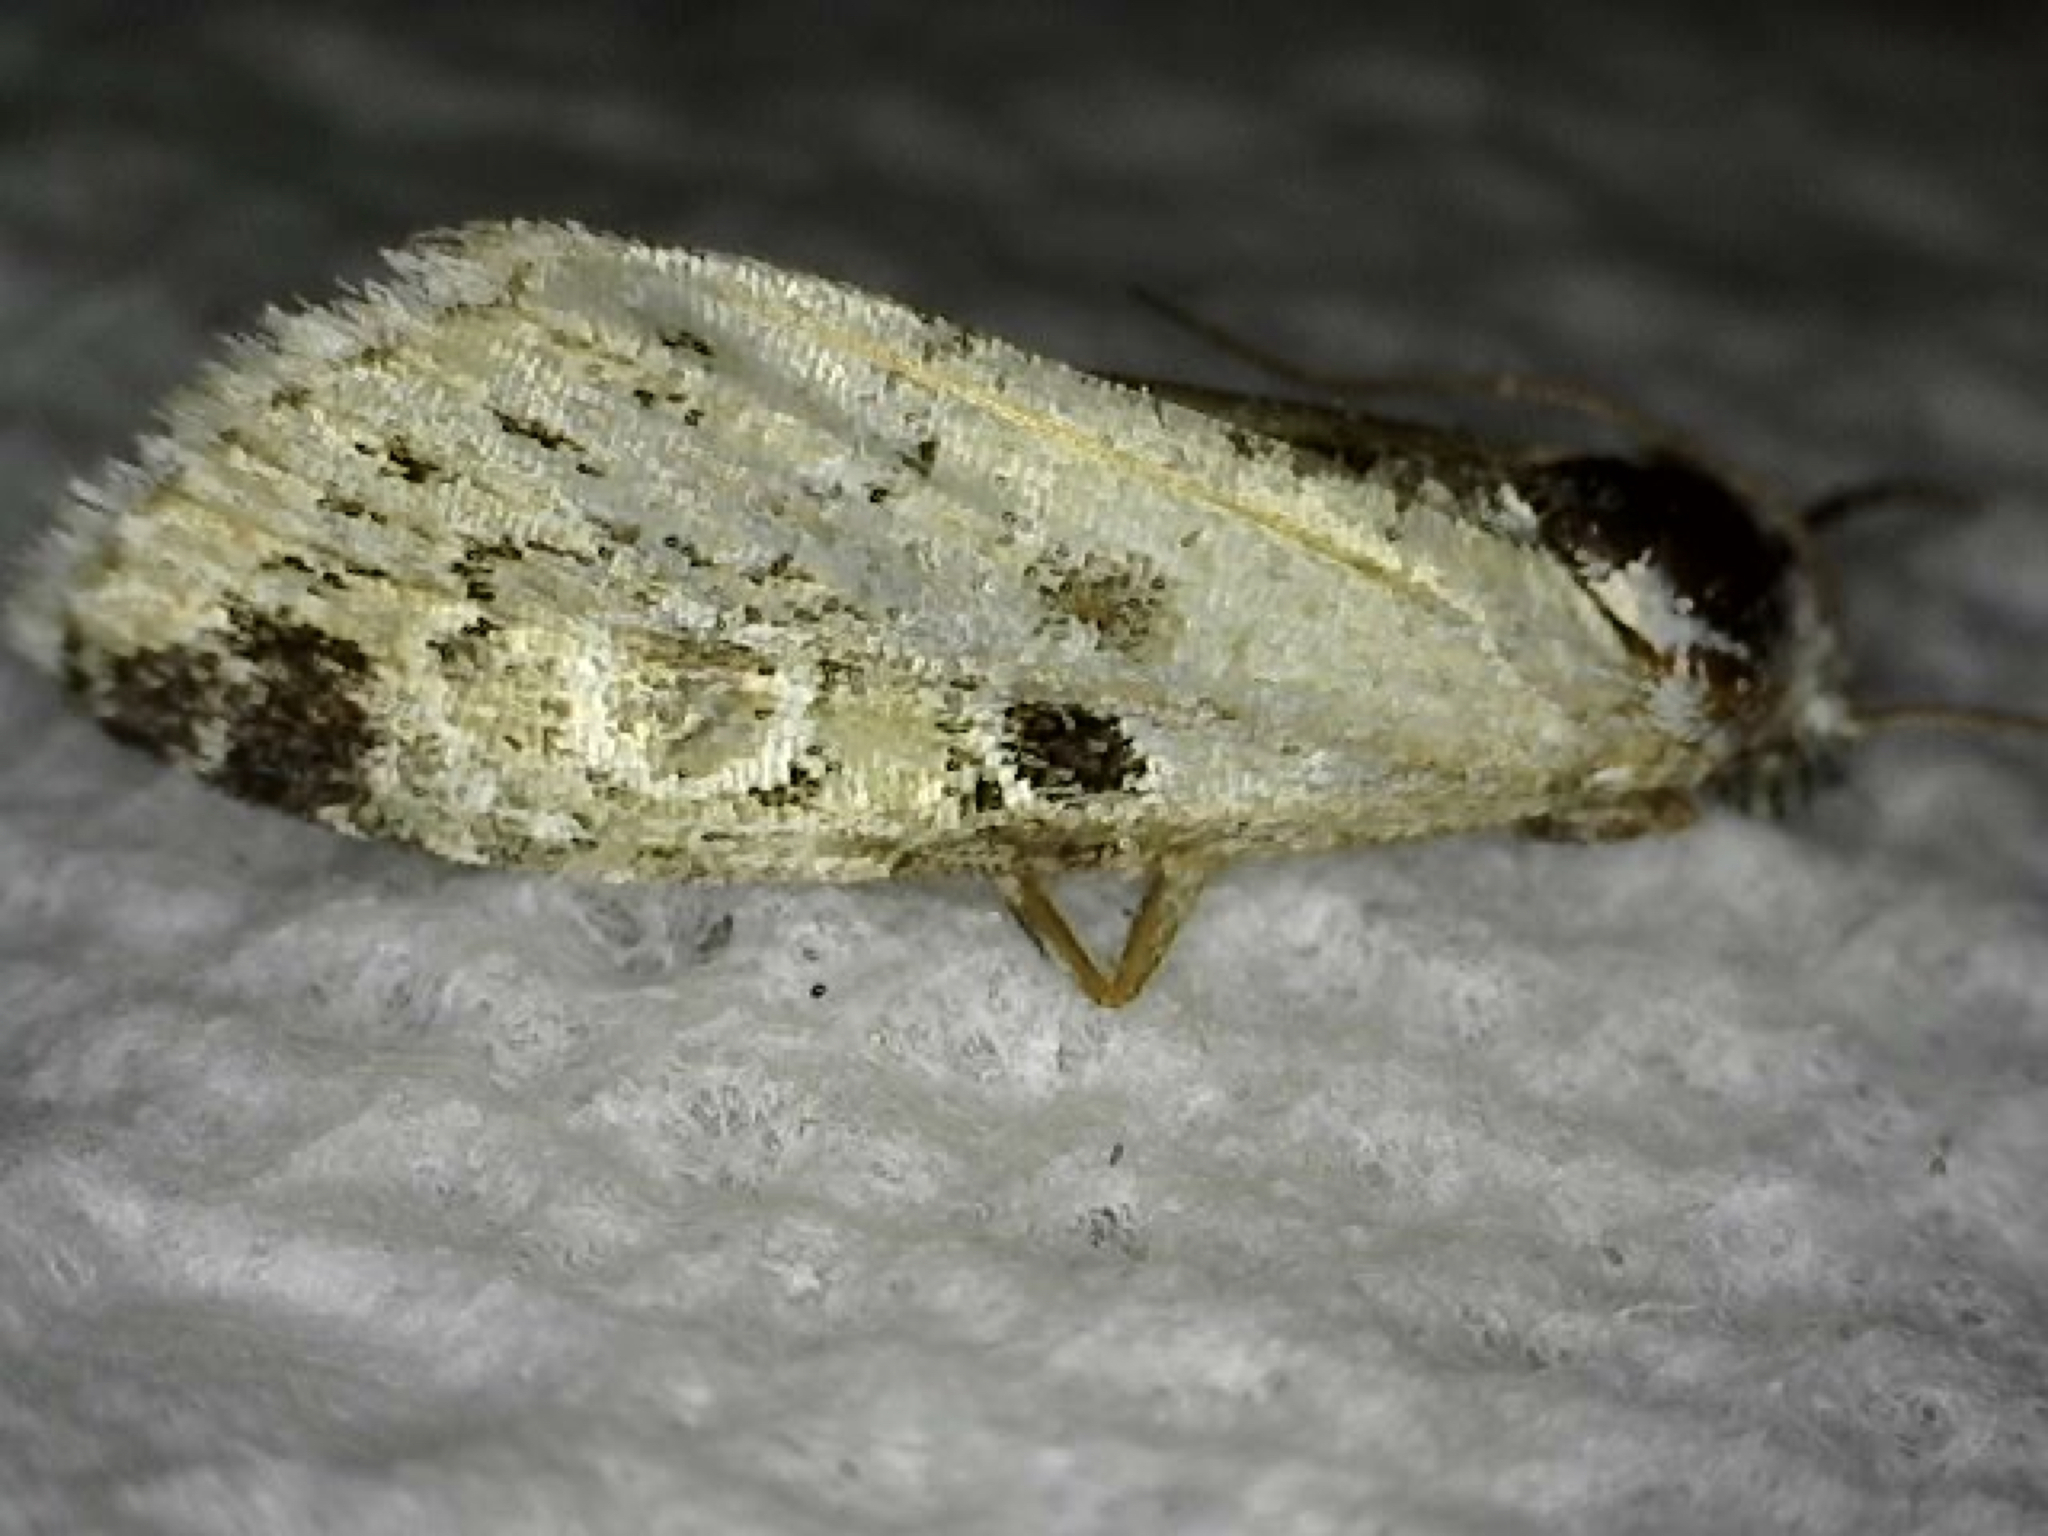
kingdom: Animalia
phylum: Arthropoda
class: Insecta
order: Lepidoptera
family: Noctuidae
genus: Maliattha
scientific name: Maliattha concinnimacula
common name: Red-spotted glyph
